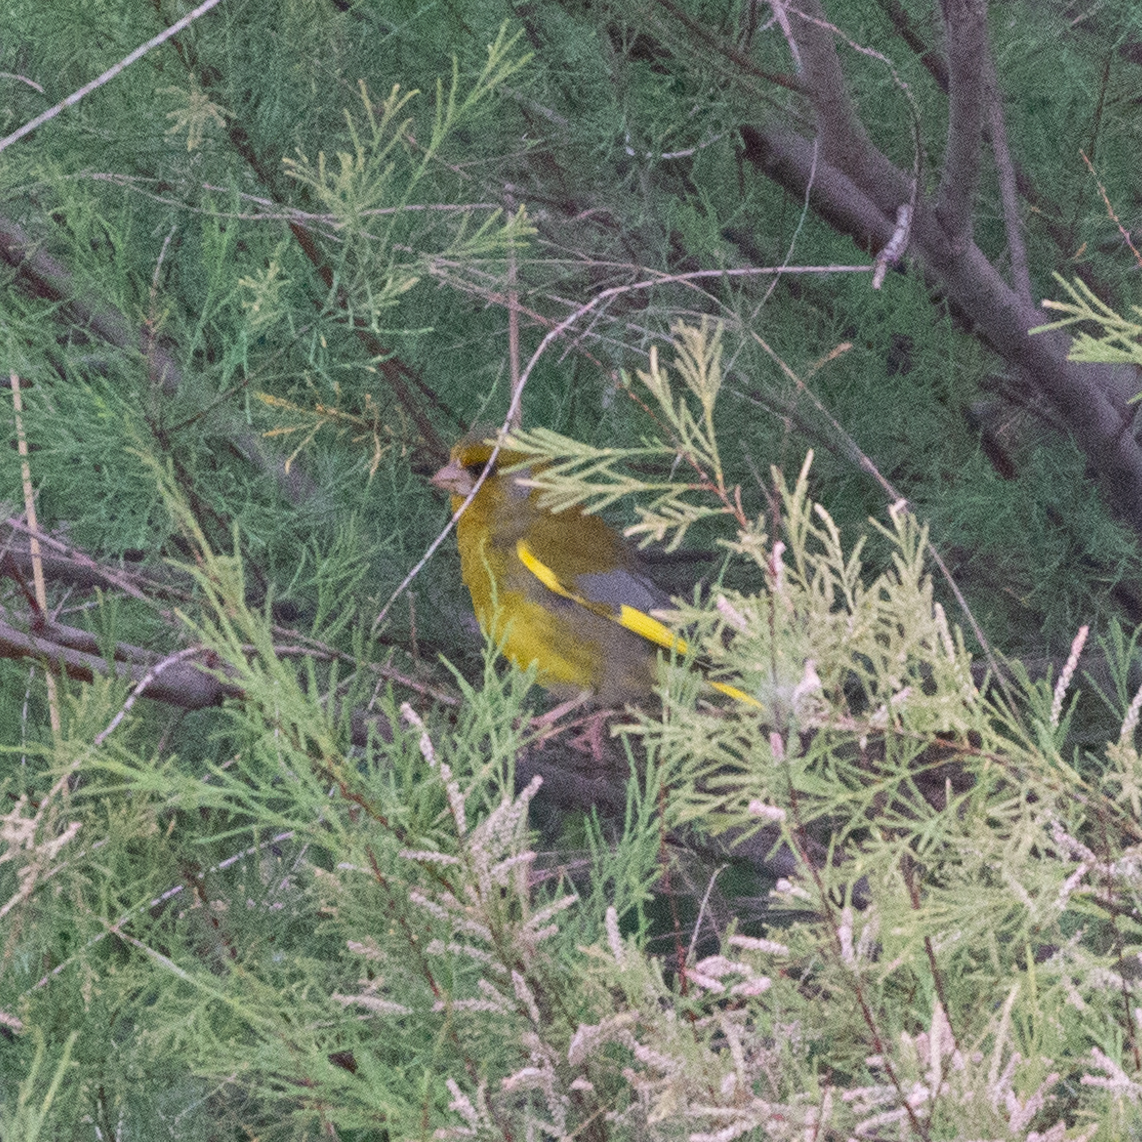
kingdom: Plantae
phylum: Tracheophyta
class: Liliopsida
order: Poales
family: Poaceae
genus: Chloris
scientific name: Chloris chloris
